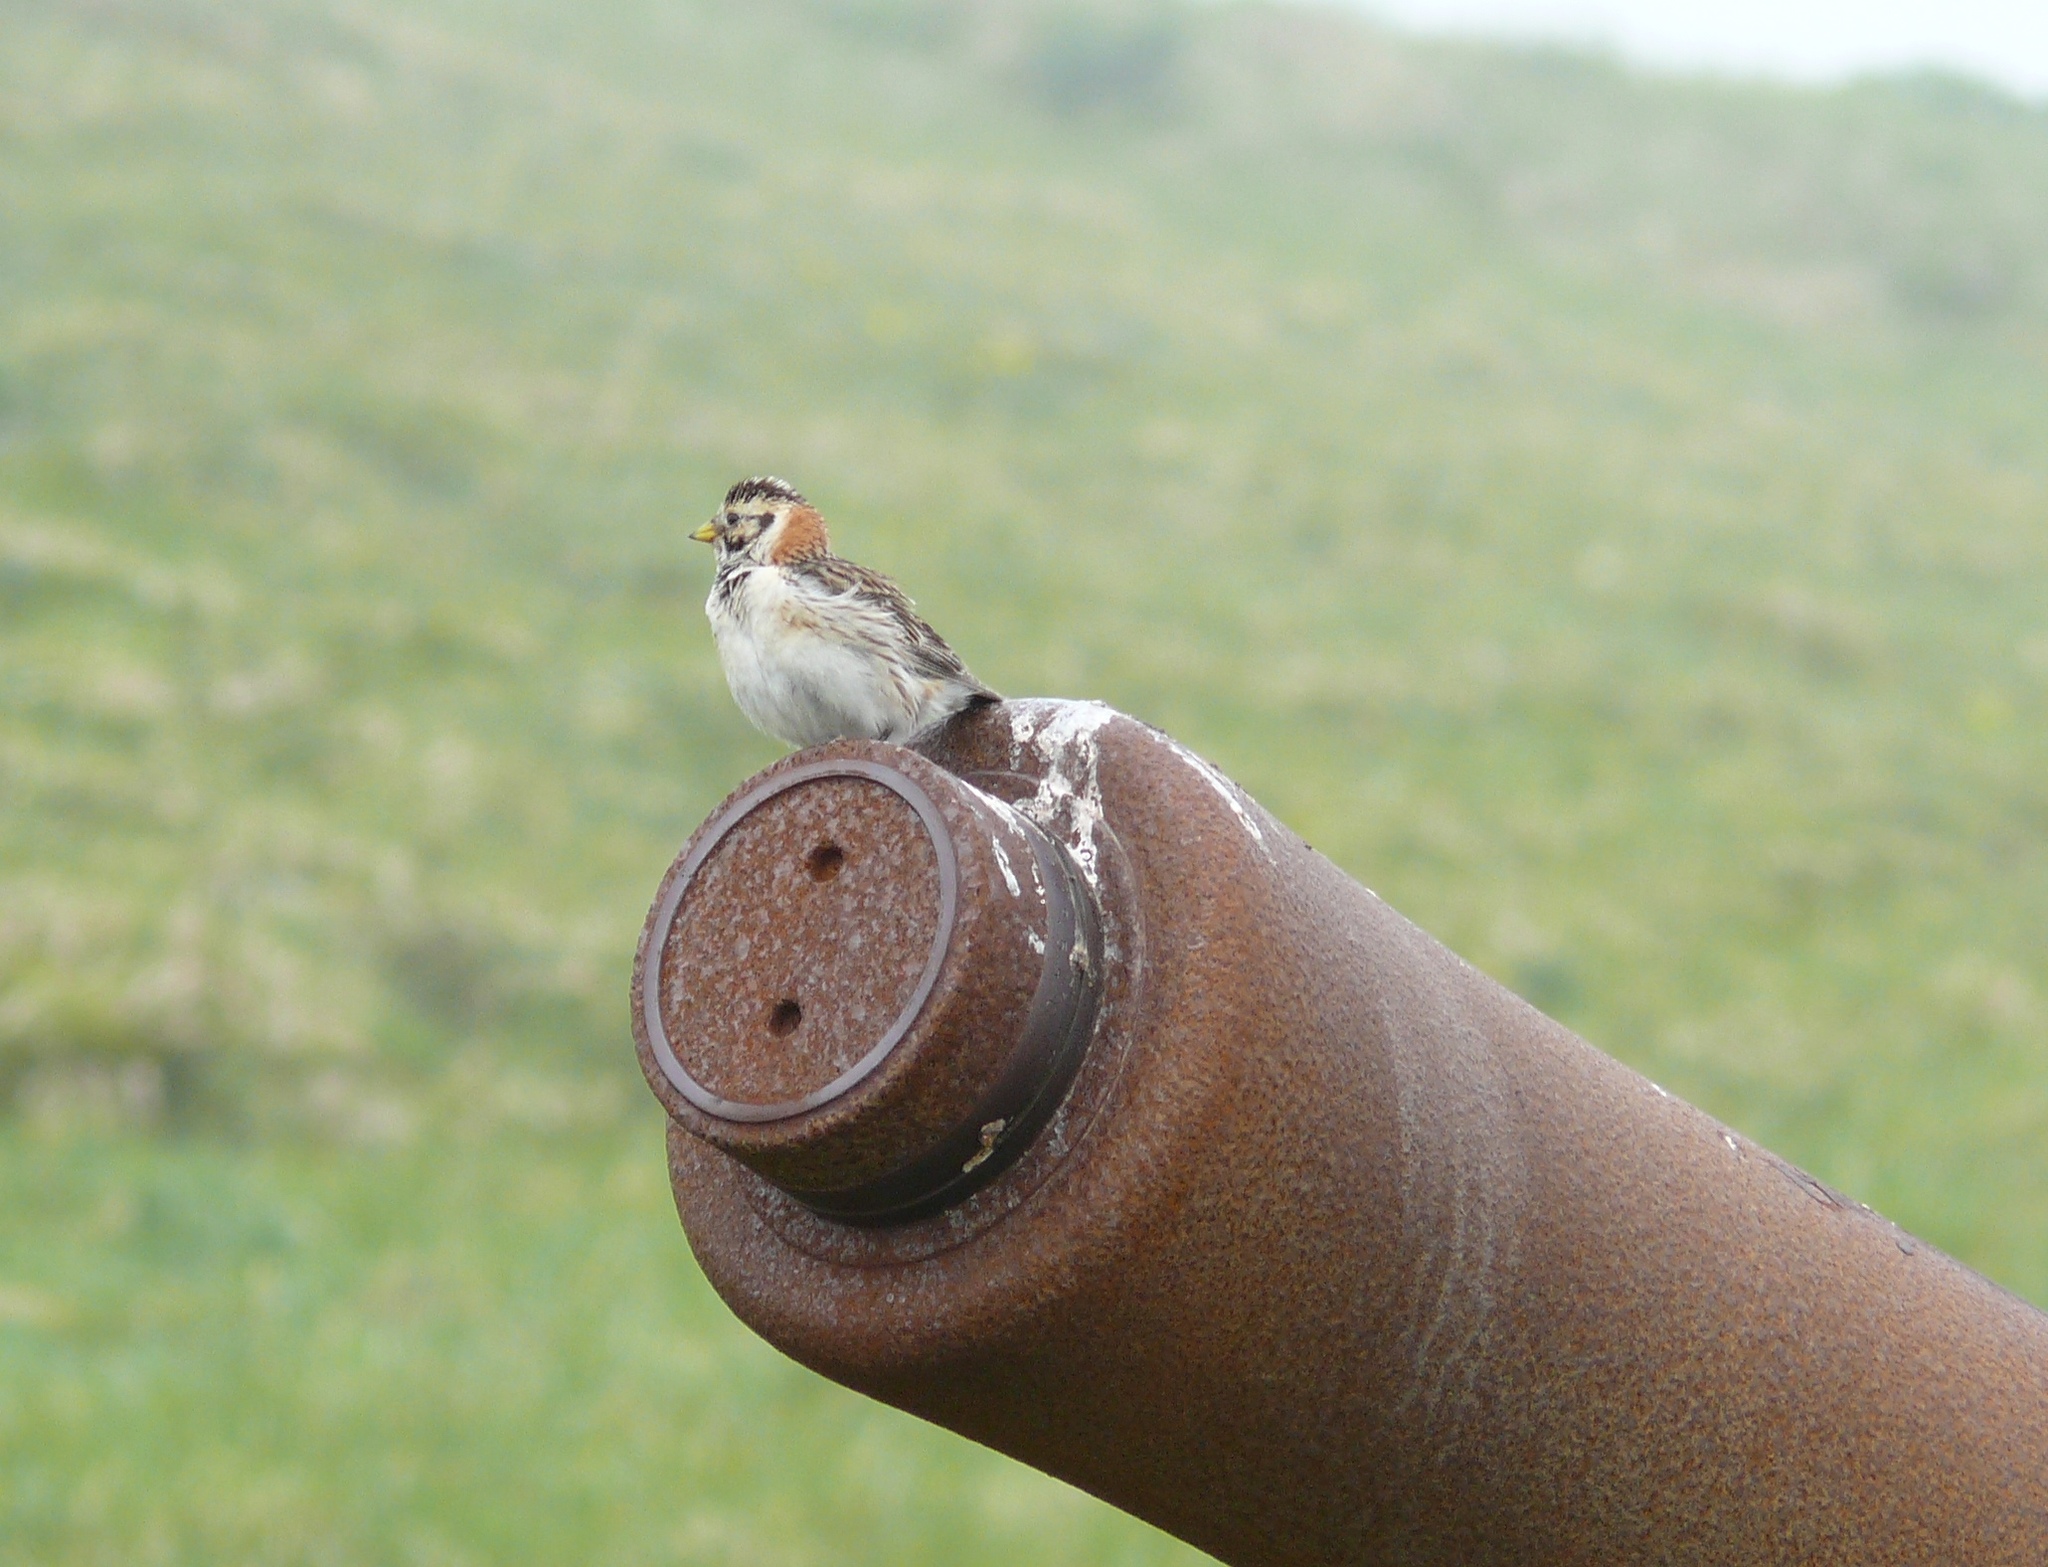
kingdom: Animalia
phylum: Chordata
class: Aves
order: Passeriformes
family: Calcariidae
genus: Calcarius
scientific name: Calcarius lapponicus
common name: Lapland longspur
